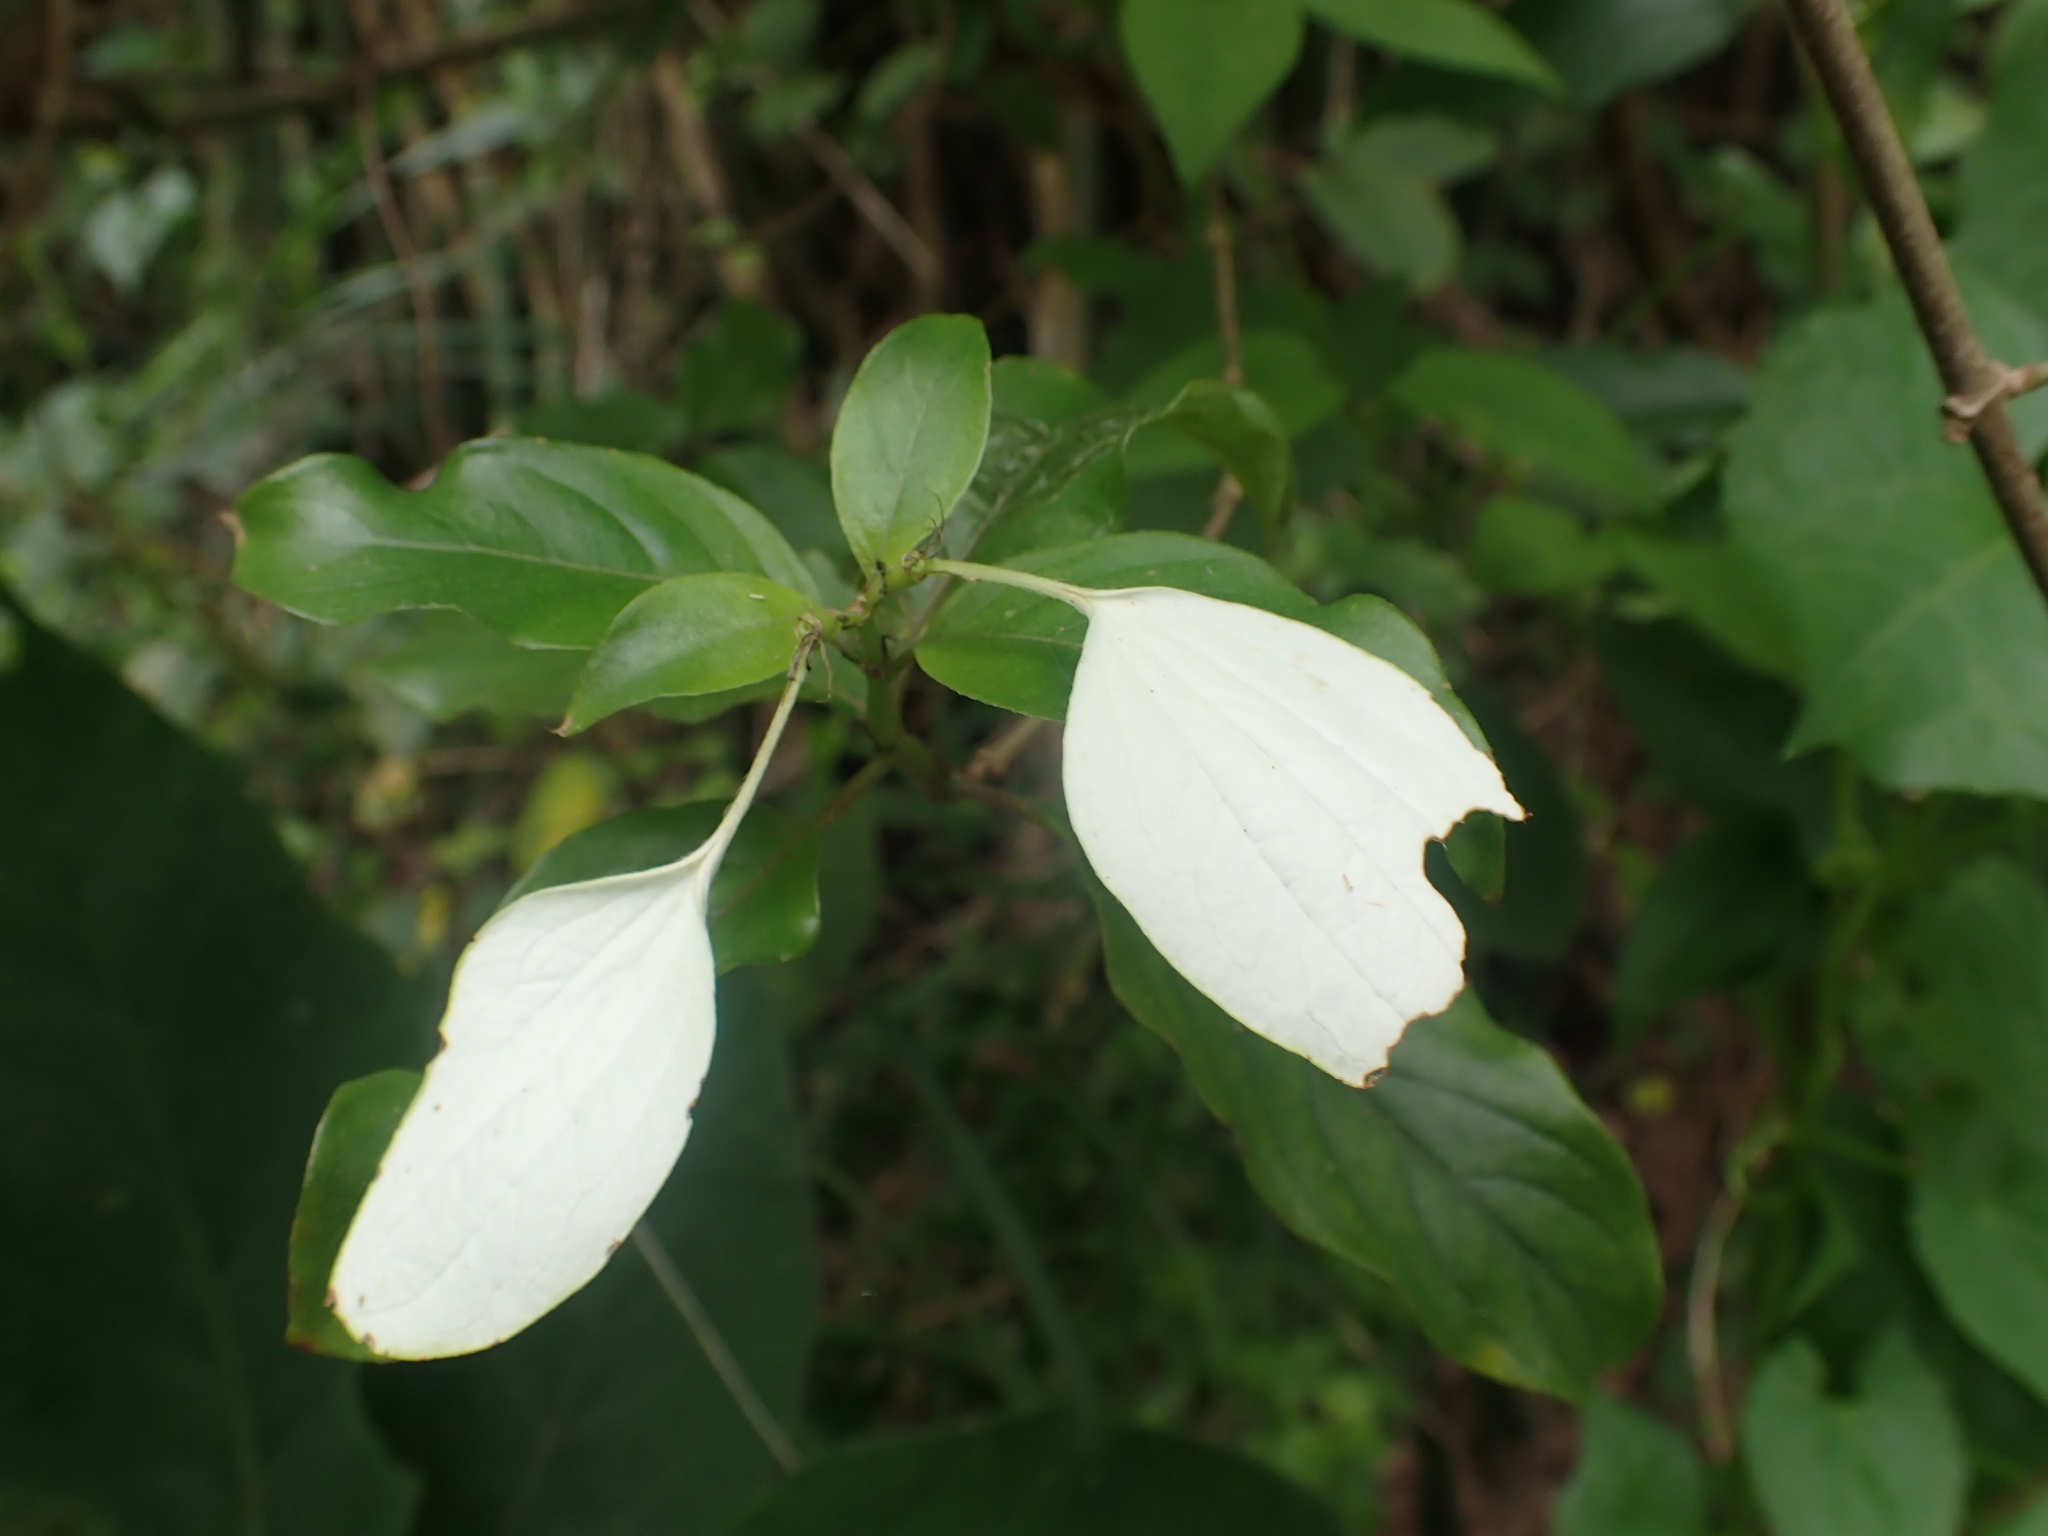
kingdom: Plantae
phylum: Tracheophyta
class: Magnoliopsida
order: Gentianales
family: Rubiaceae
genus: Mussaenda
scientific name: Mussaenda formosana
